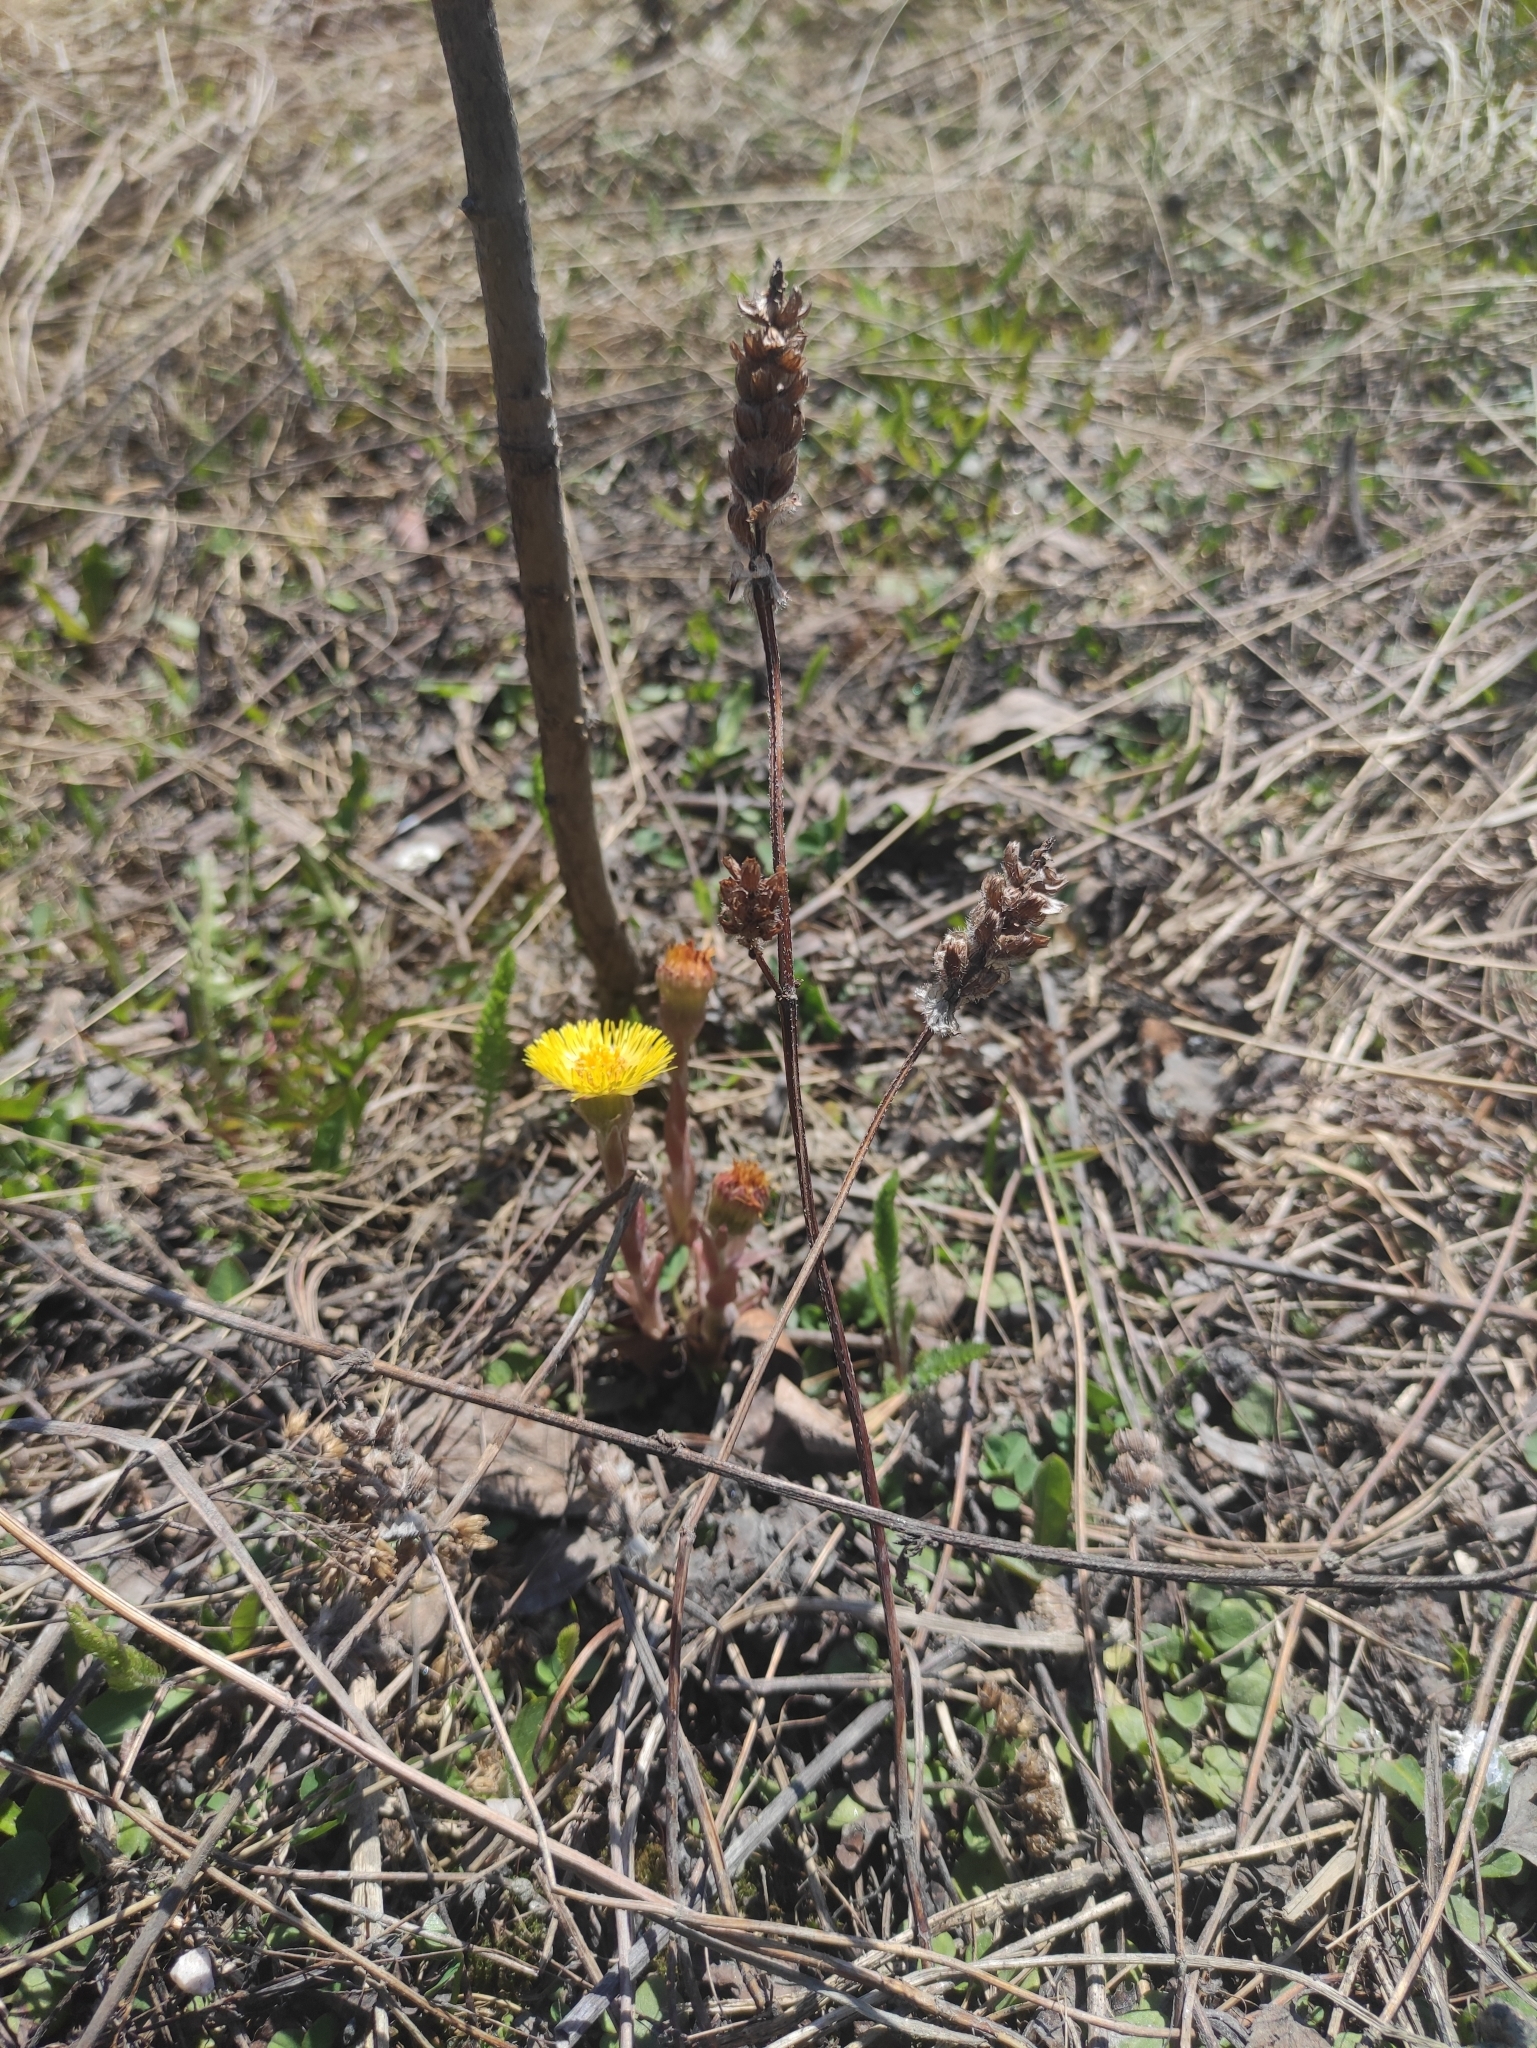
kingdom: Plantae
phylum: Tracheophyta
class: Magnoliopsida
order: Lamiales
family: Lamiaceae
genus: Prunella
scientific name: Prunella vulgaris
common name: Heal-all
